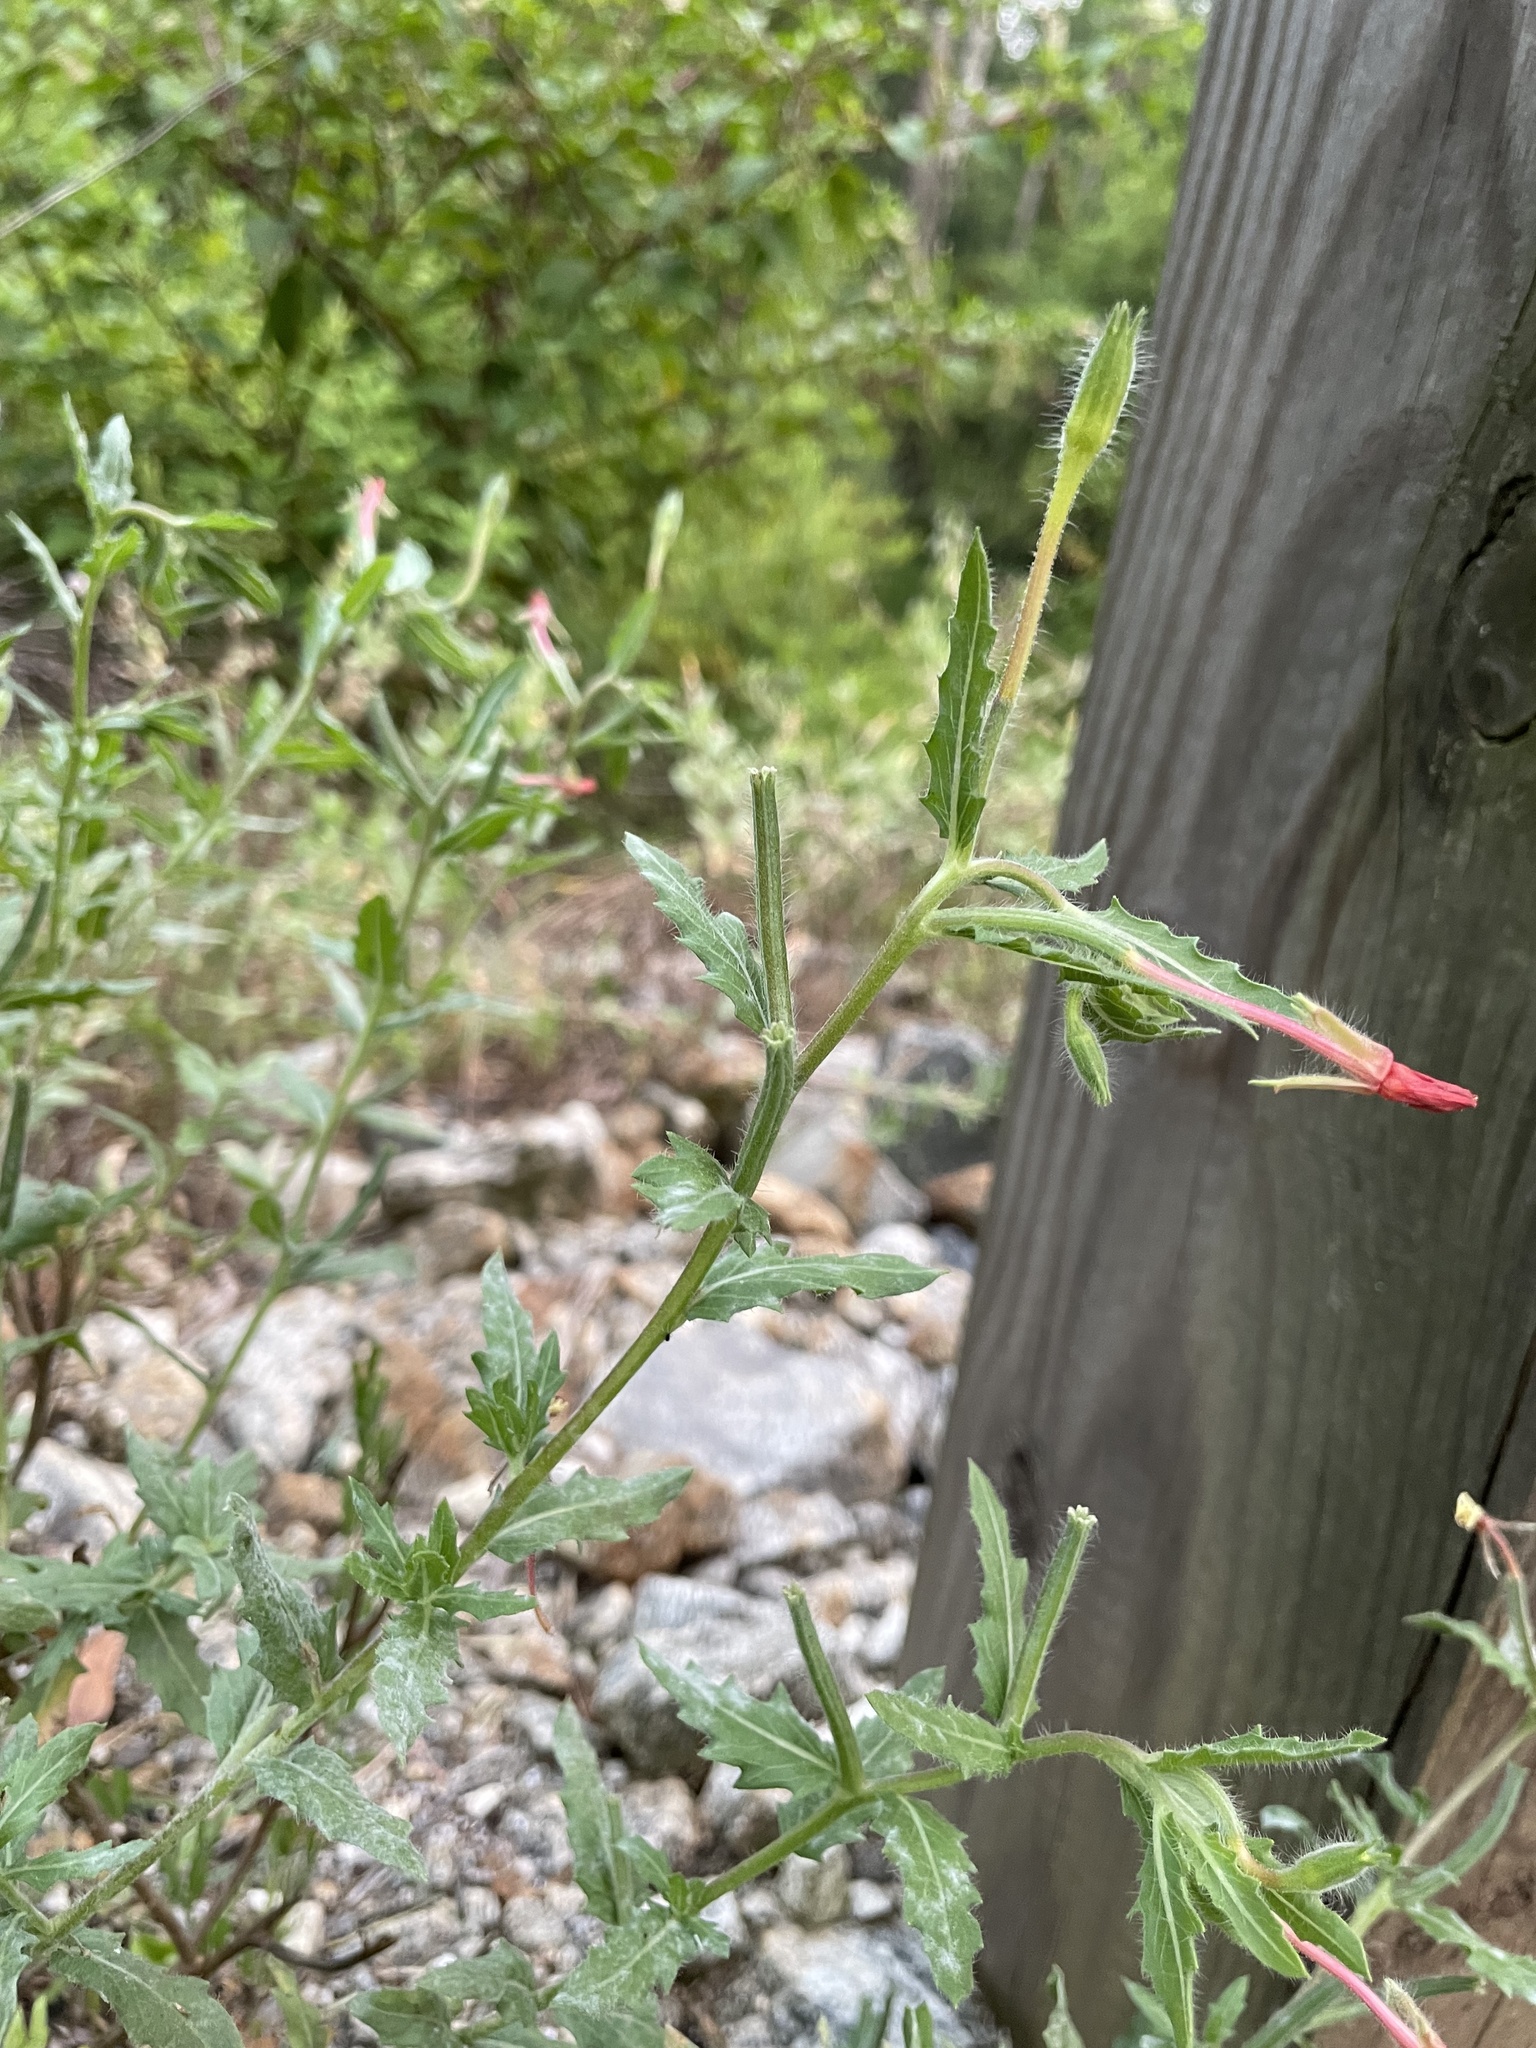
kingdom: Plantae
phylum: Tracheophyta
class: Magnoliopsida
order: Myrtales
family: Onagraceae
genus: Oenothera
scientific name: Oenothera laciniata
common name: Cut-leaved evening-primrose
